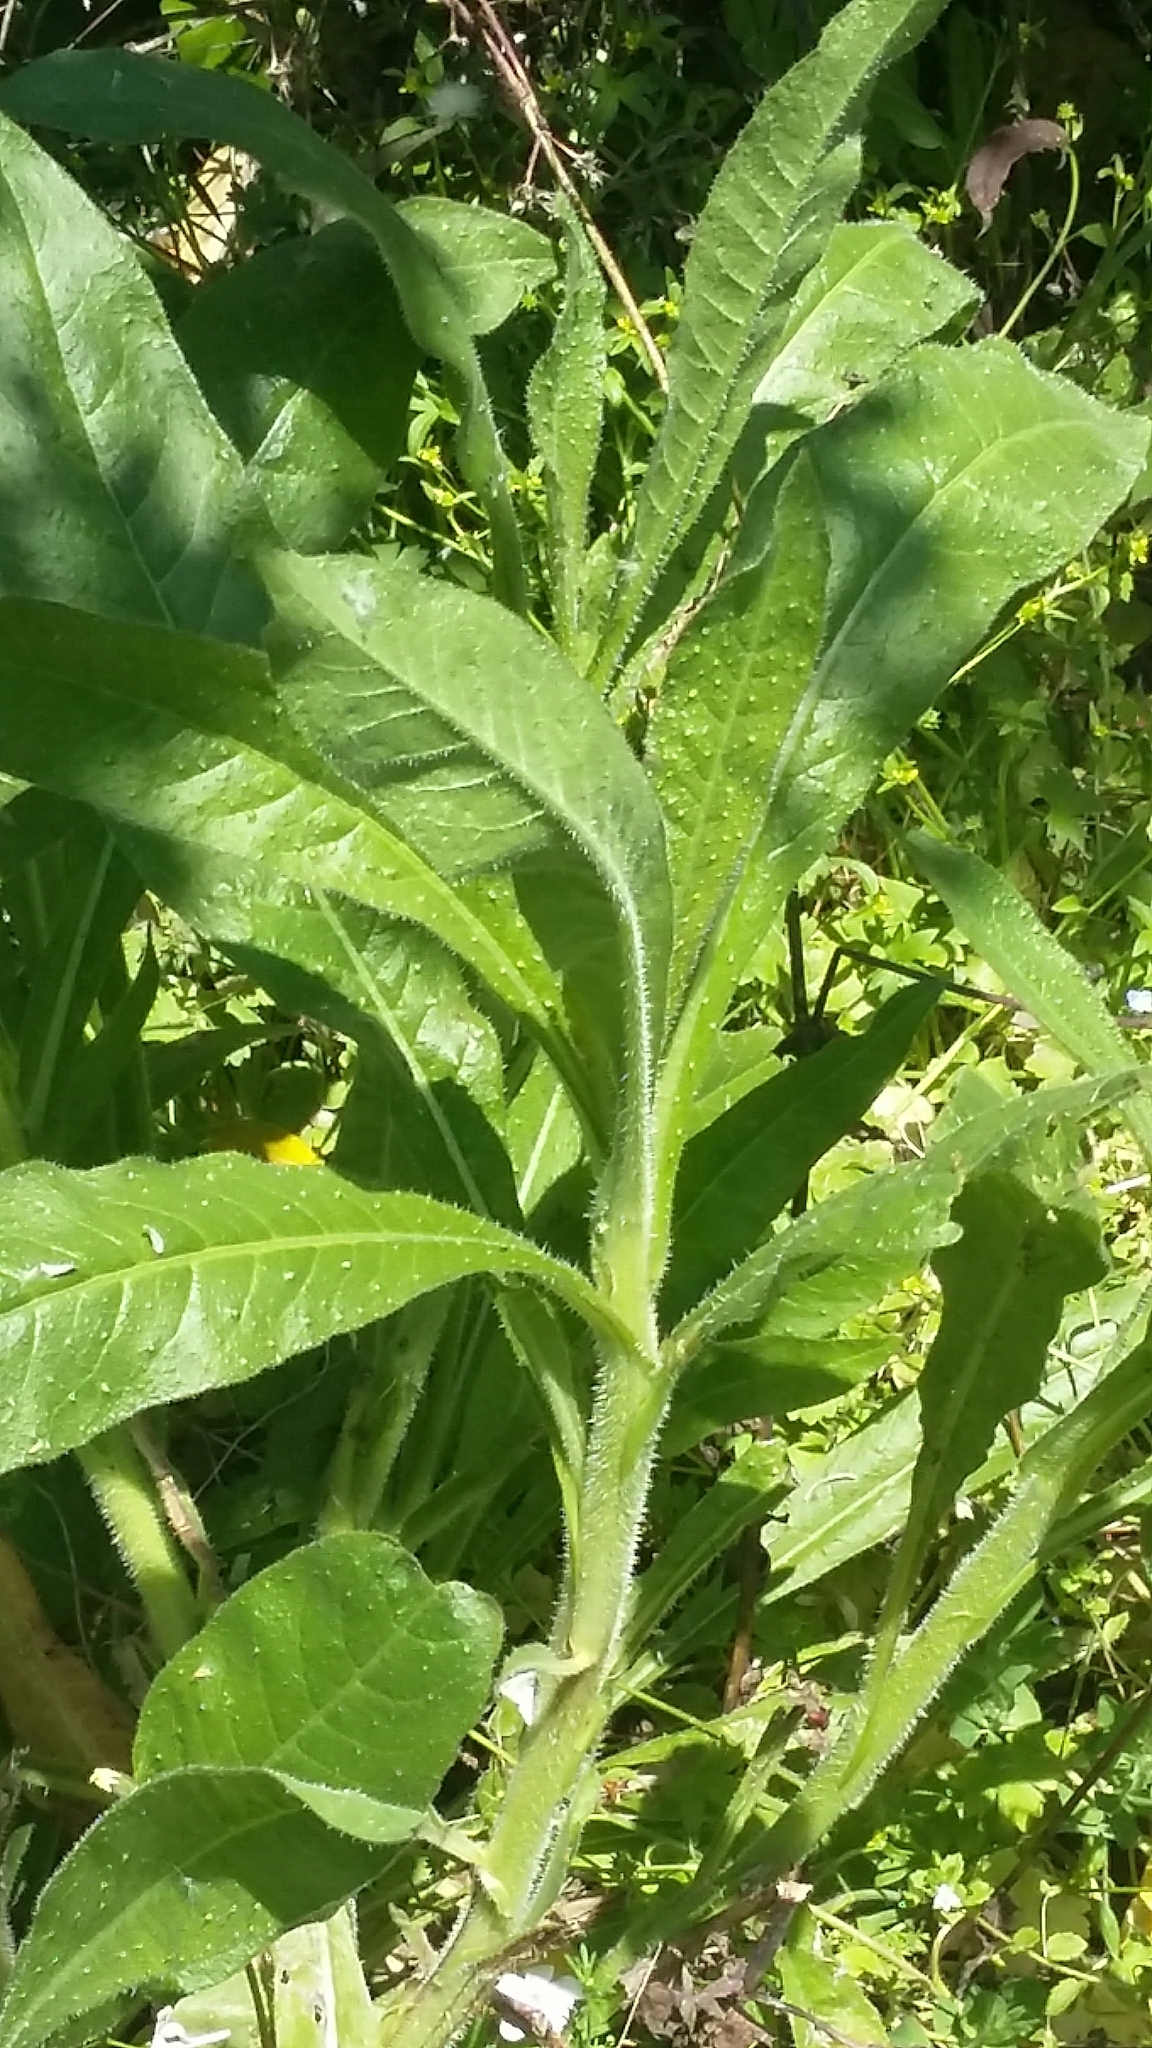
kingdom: Plantae
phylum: Tracheophyta
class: Magnoliopsida
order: Asterales
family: Asteraceae
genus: Helminthotheca
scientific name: Helminthotheca echioides
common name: Ox-tongue
